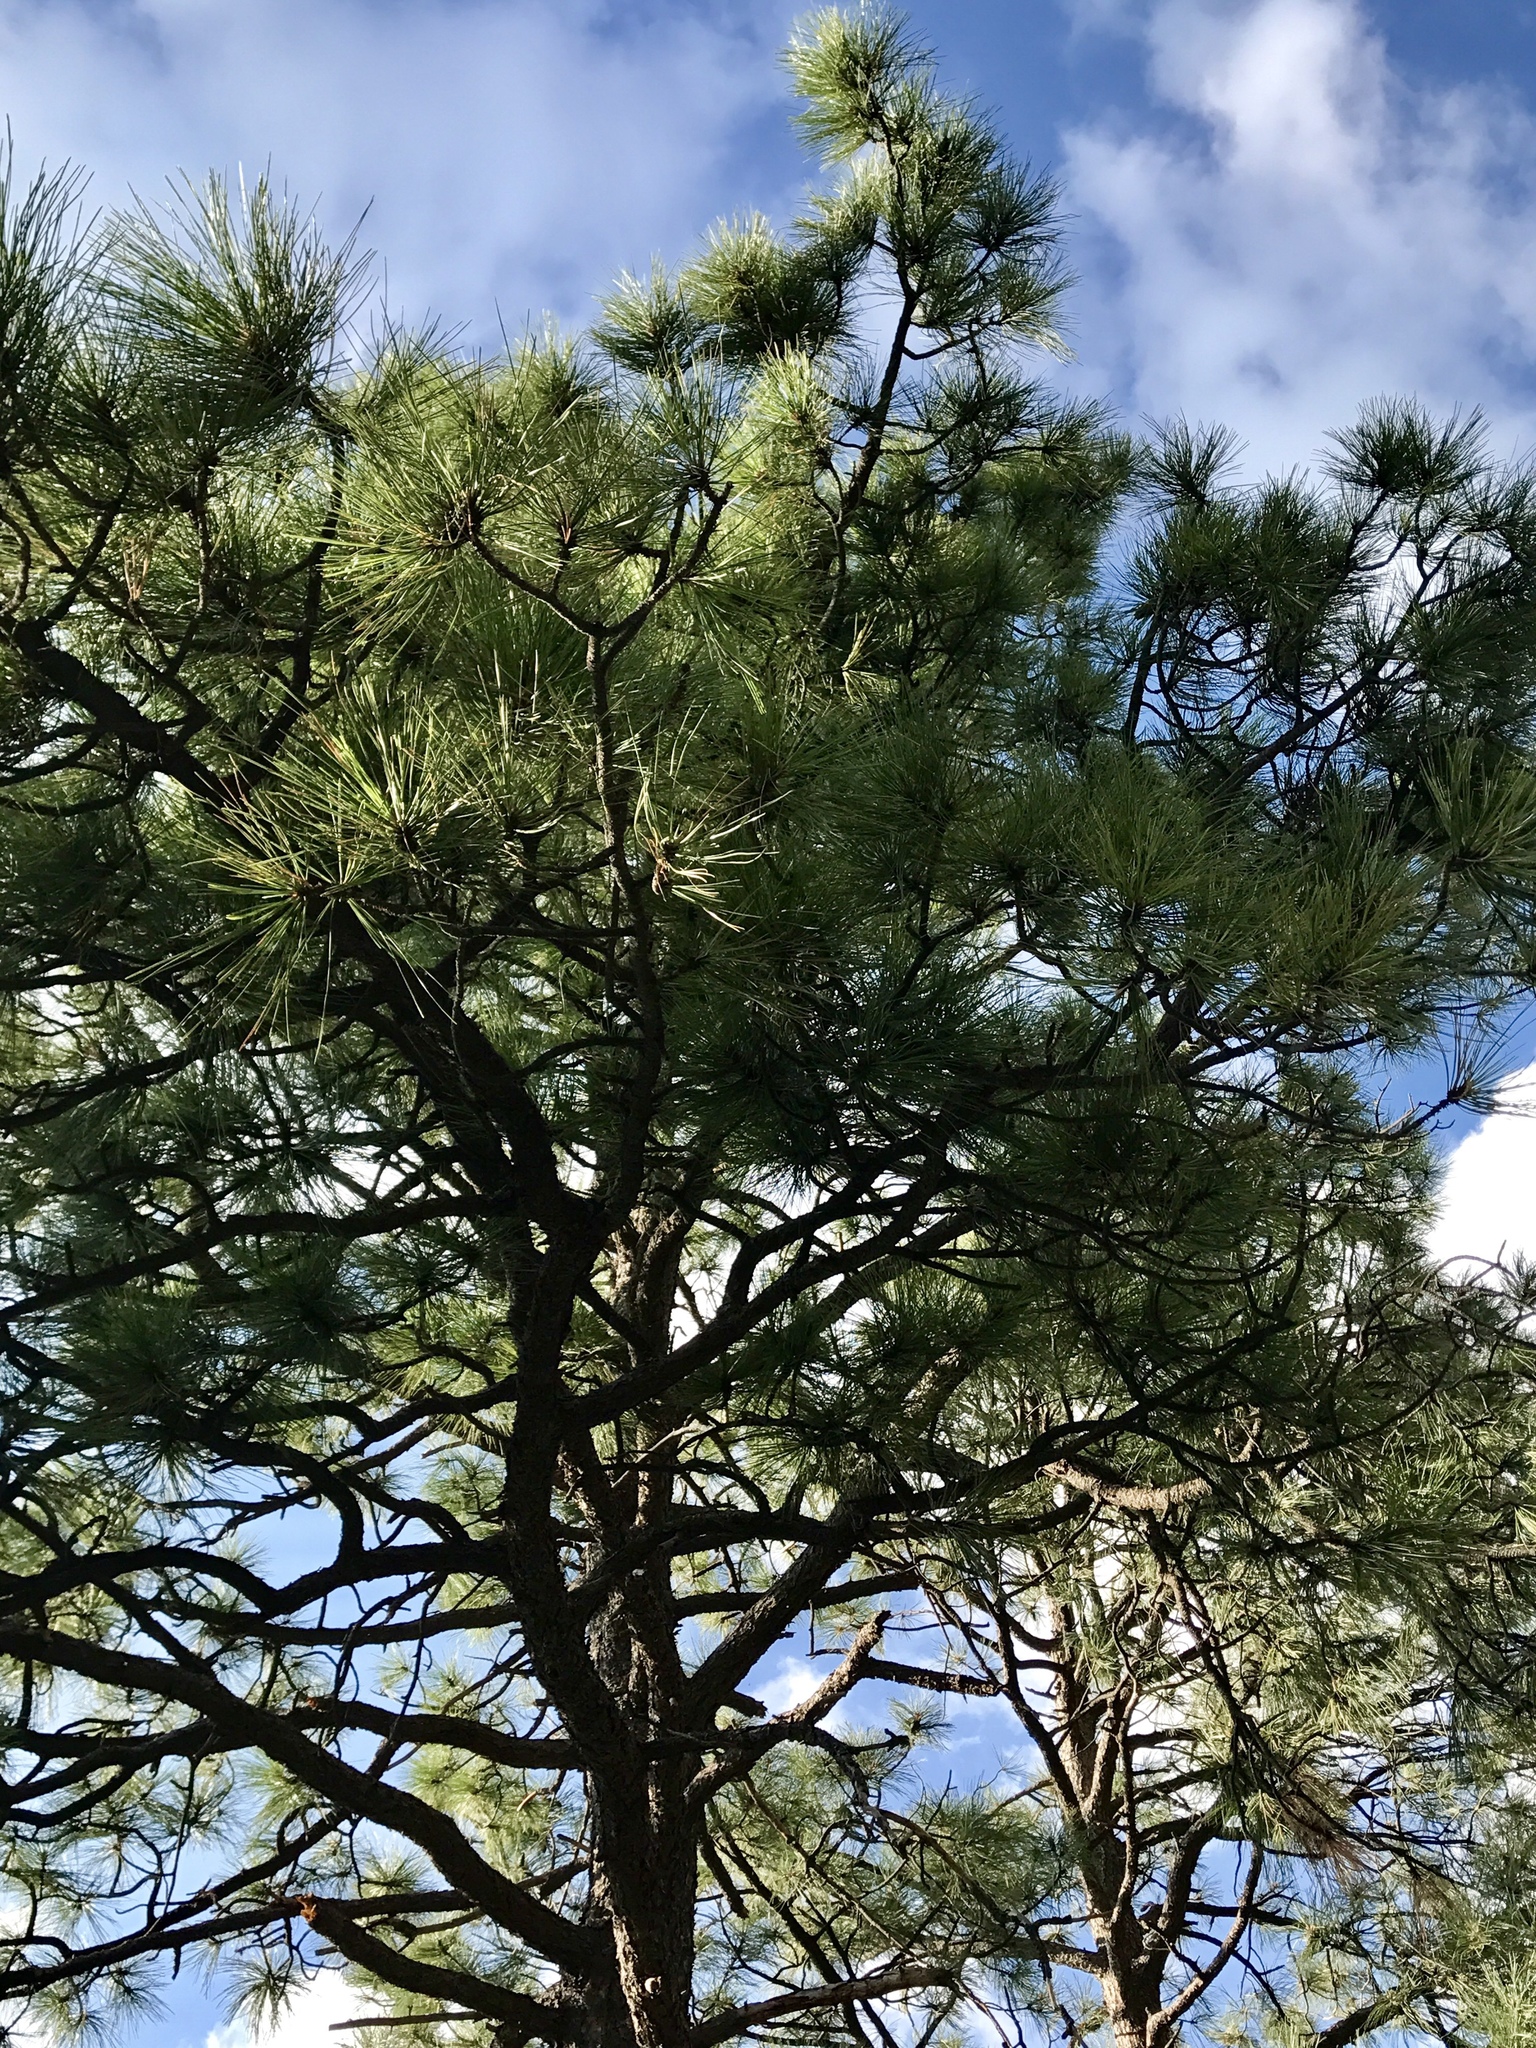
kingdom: Plantae
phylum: Tracheophyta
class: Pinopsida
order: Pinales
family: Pinaceae
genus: Pinus
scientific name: Pinus ponderosa
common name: Western yellow-pine
